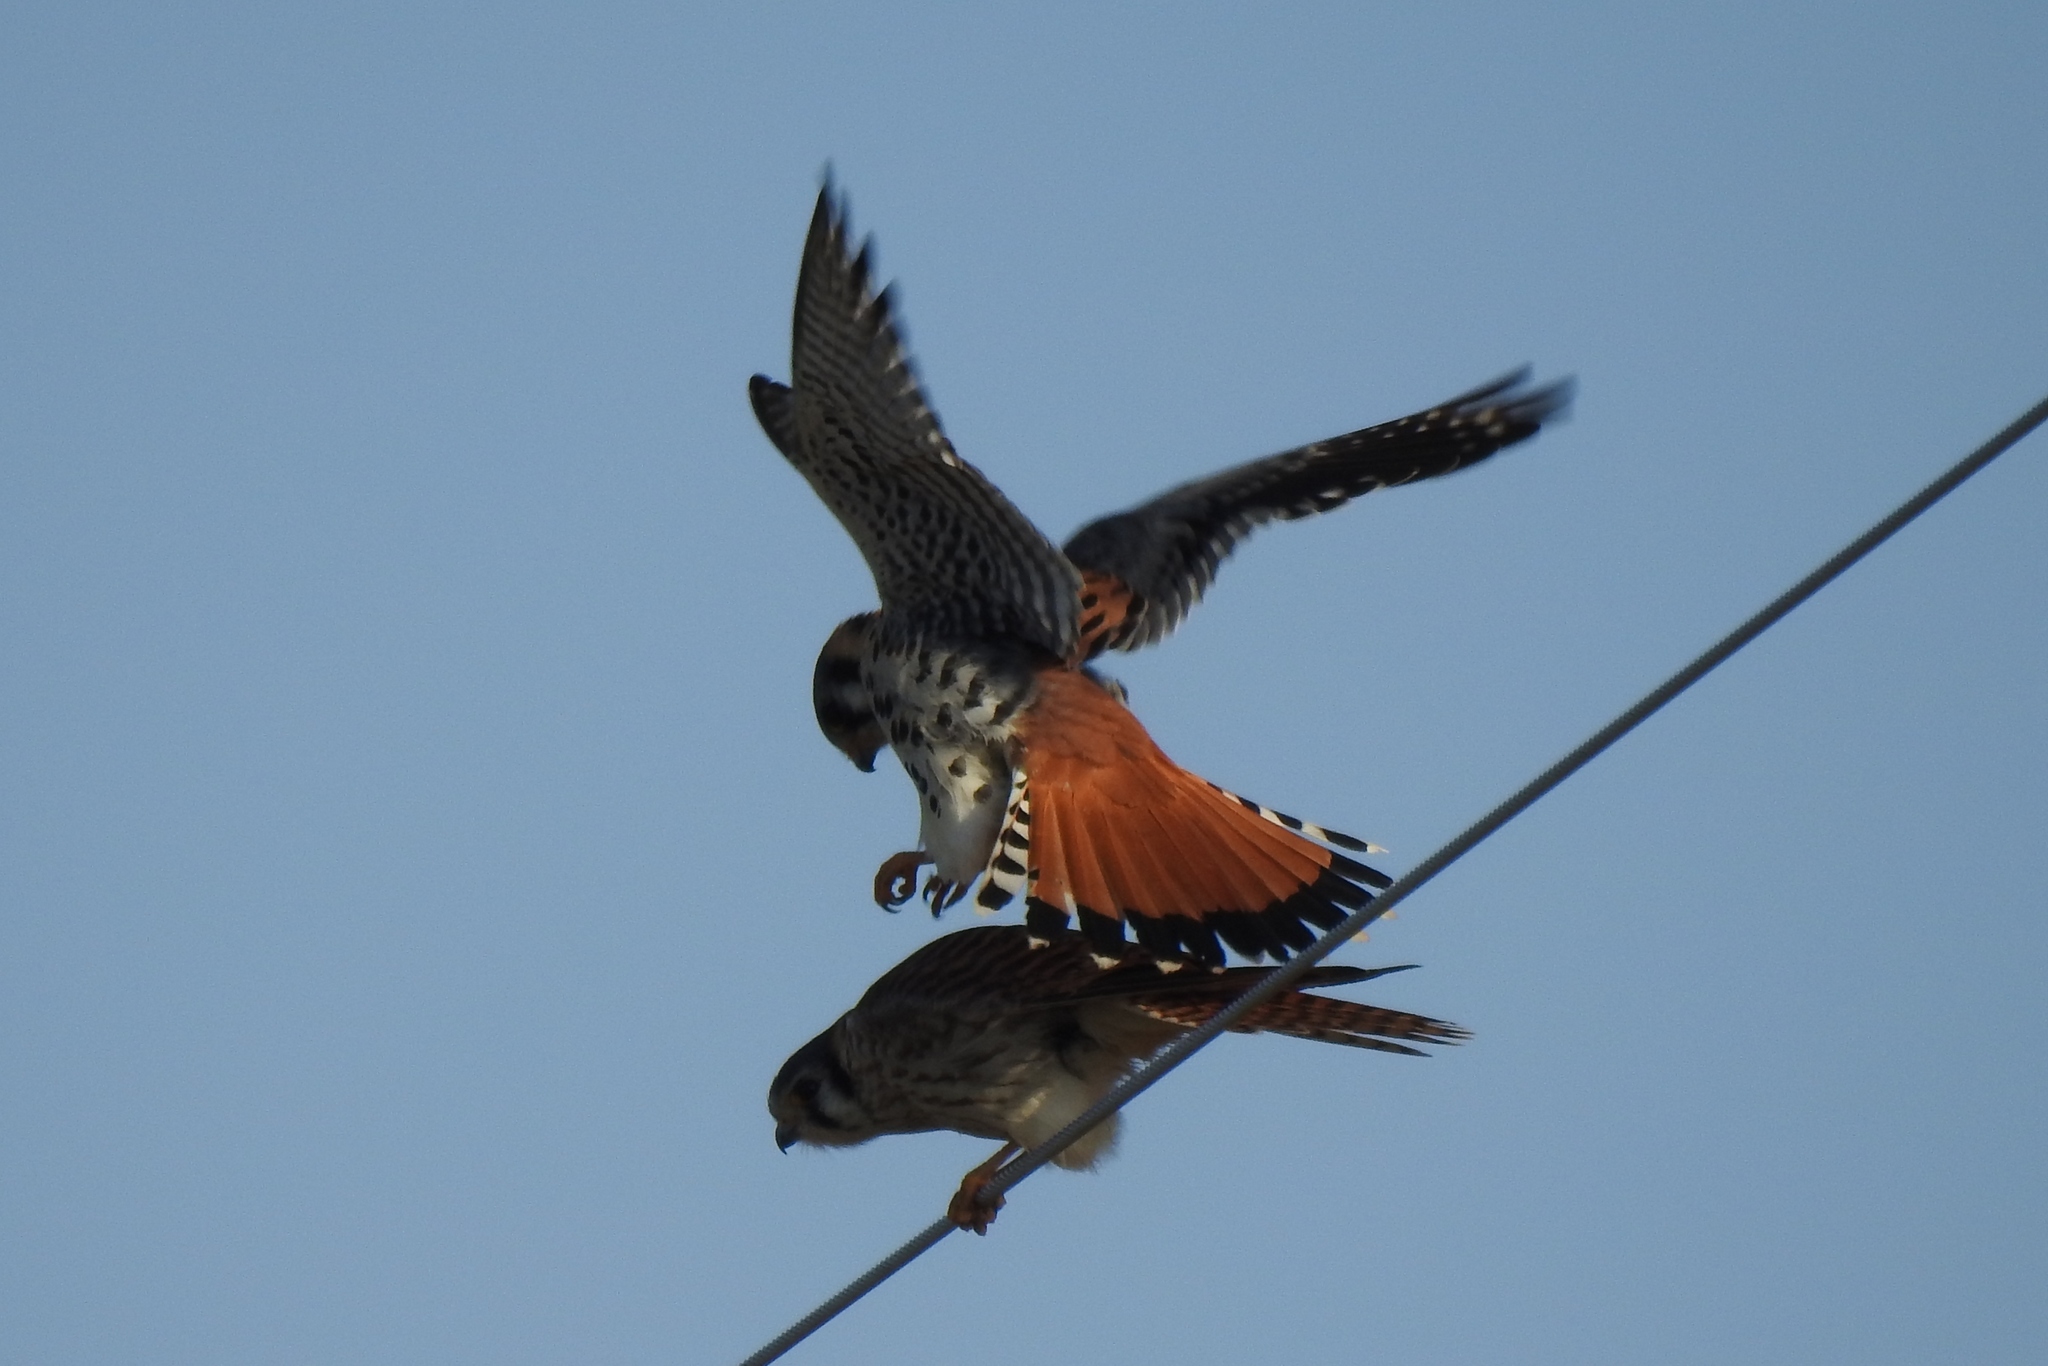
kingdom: Animalia
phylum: Chordata
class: Aves
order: Falconiformes
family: Falconidae
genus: Falco
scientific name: Falco sparverius
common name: American kestrel
